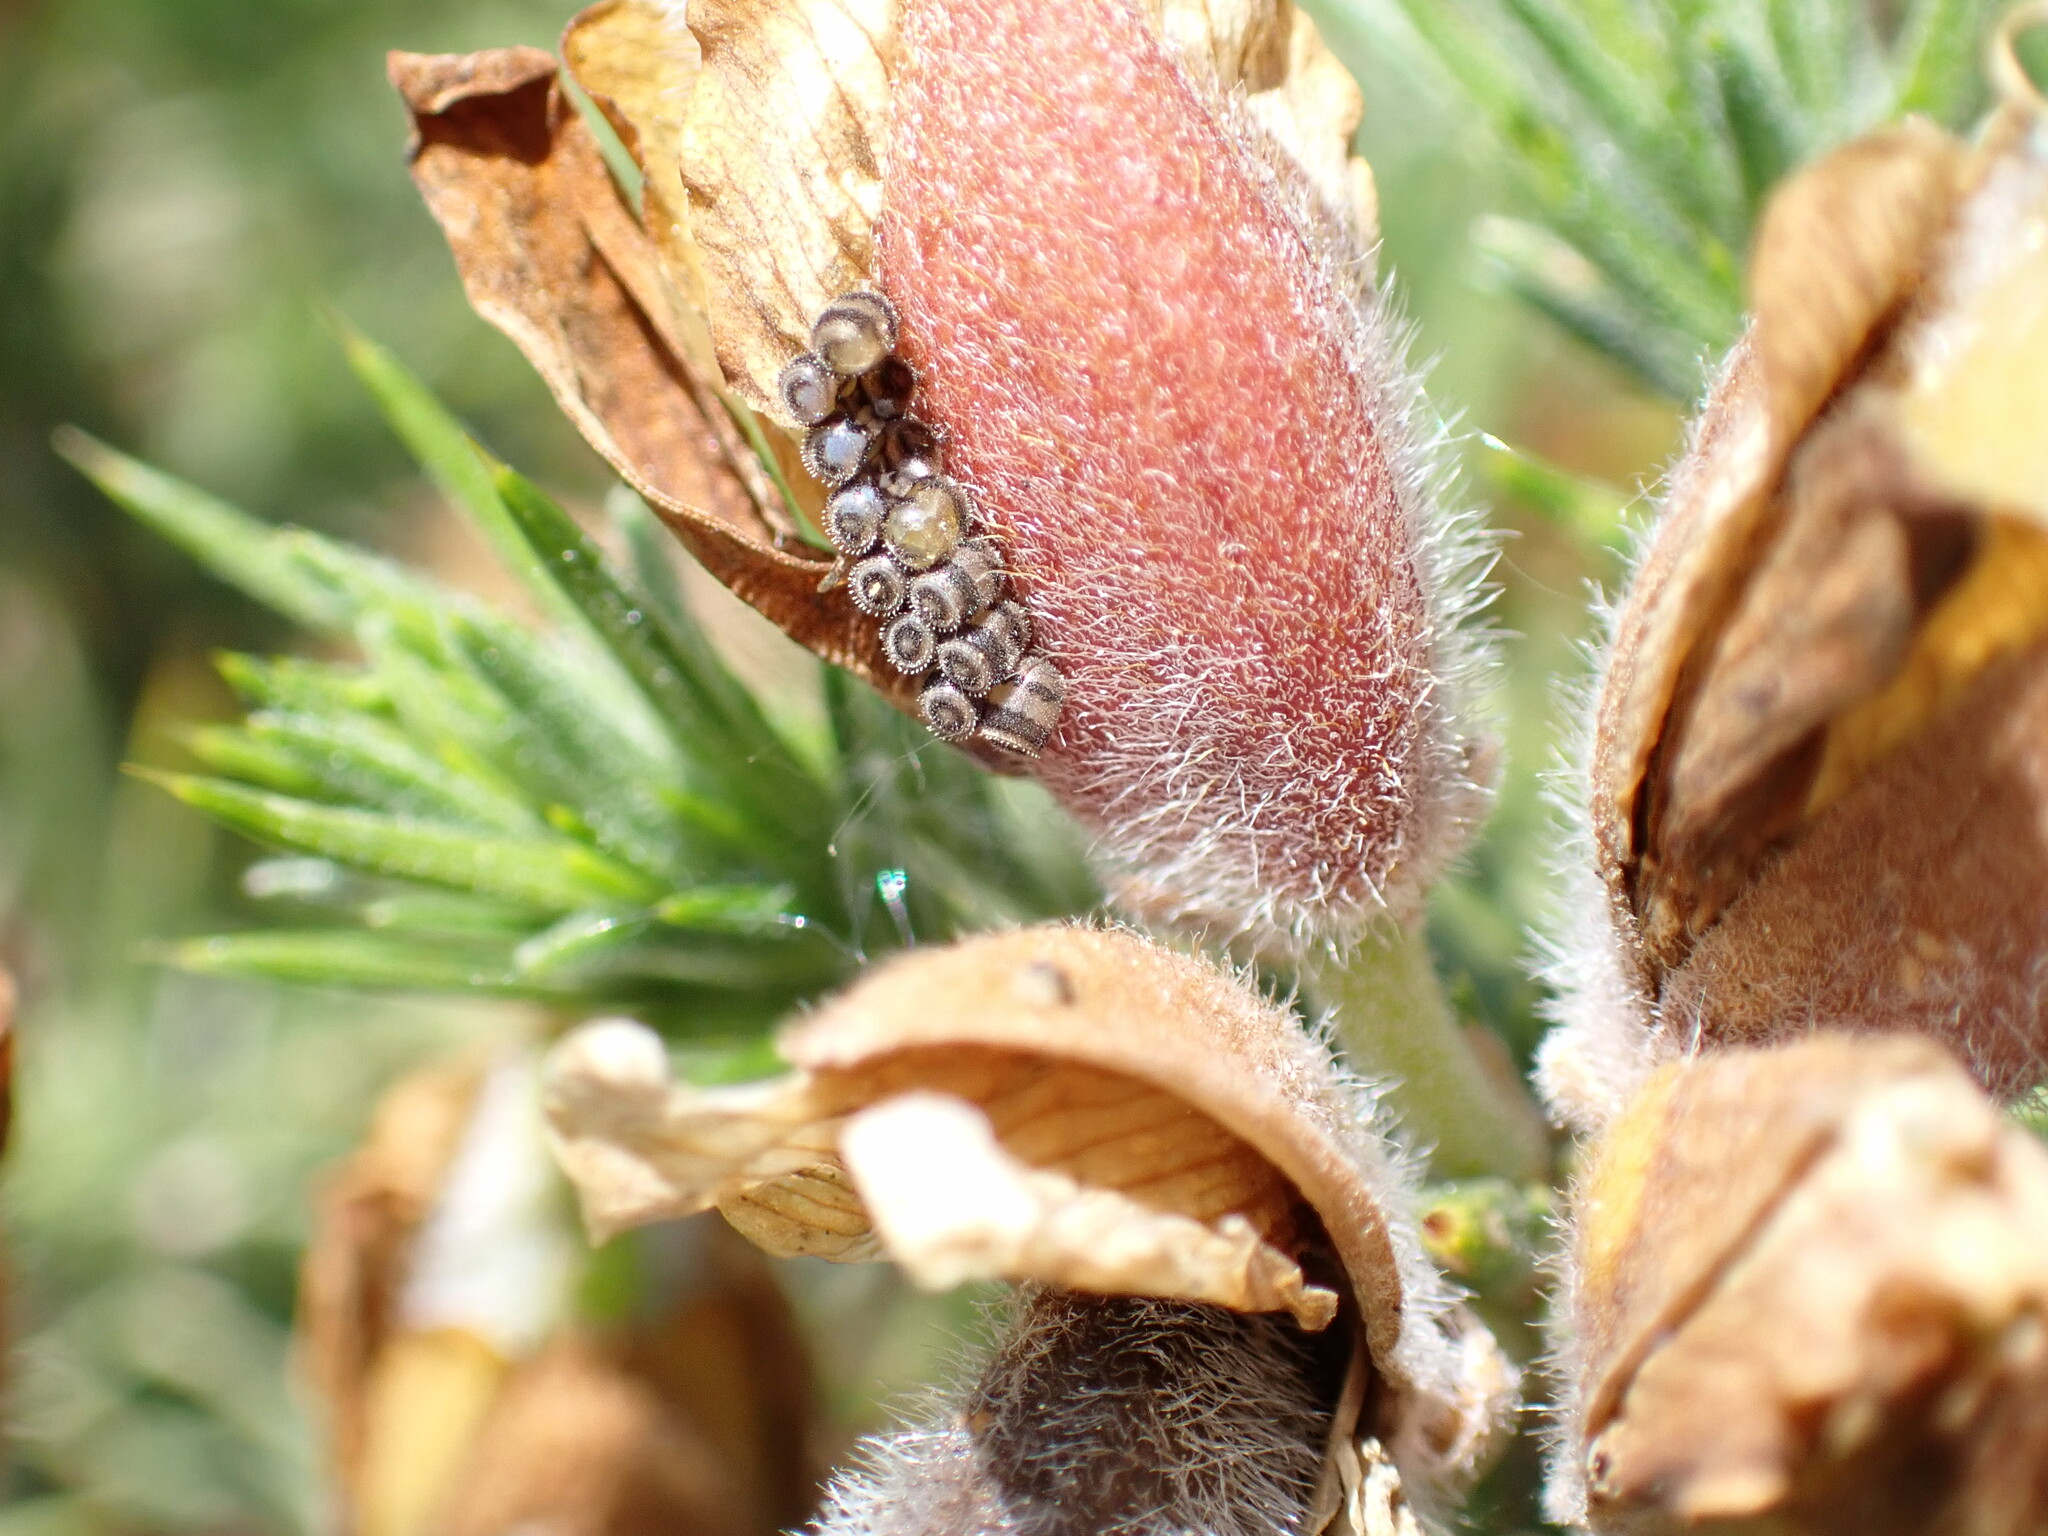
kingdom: Animalia
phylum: Arthropoda
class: Insecta
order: Hemiptera
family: Pentatomidae
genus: Piezodorus
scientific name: Piezodorus lituratus
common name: Stink bug
